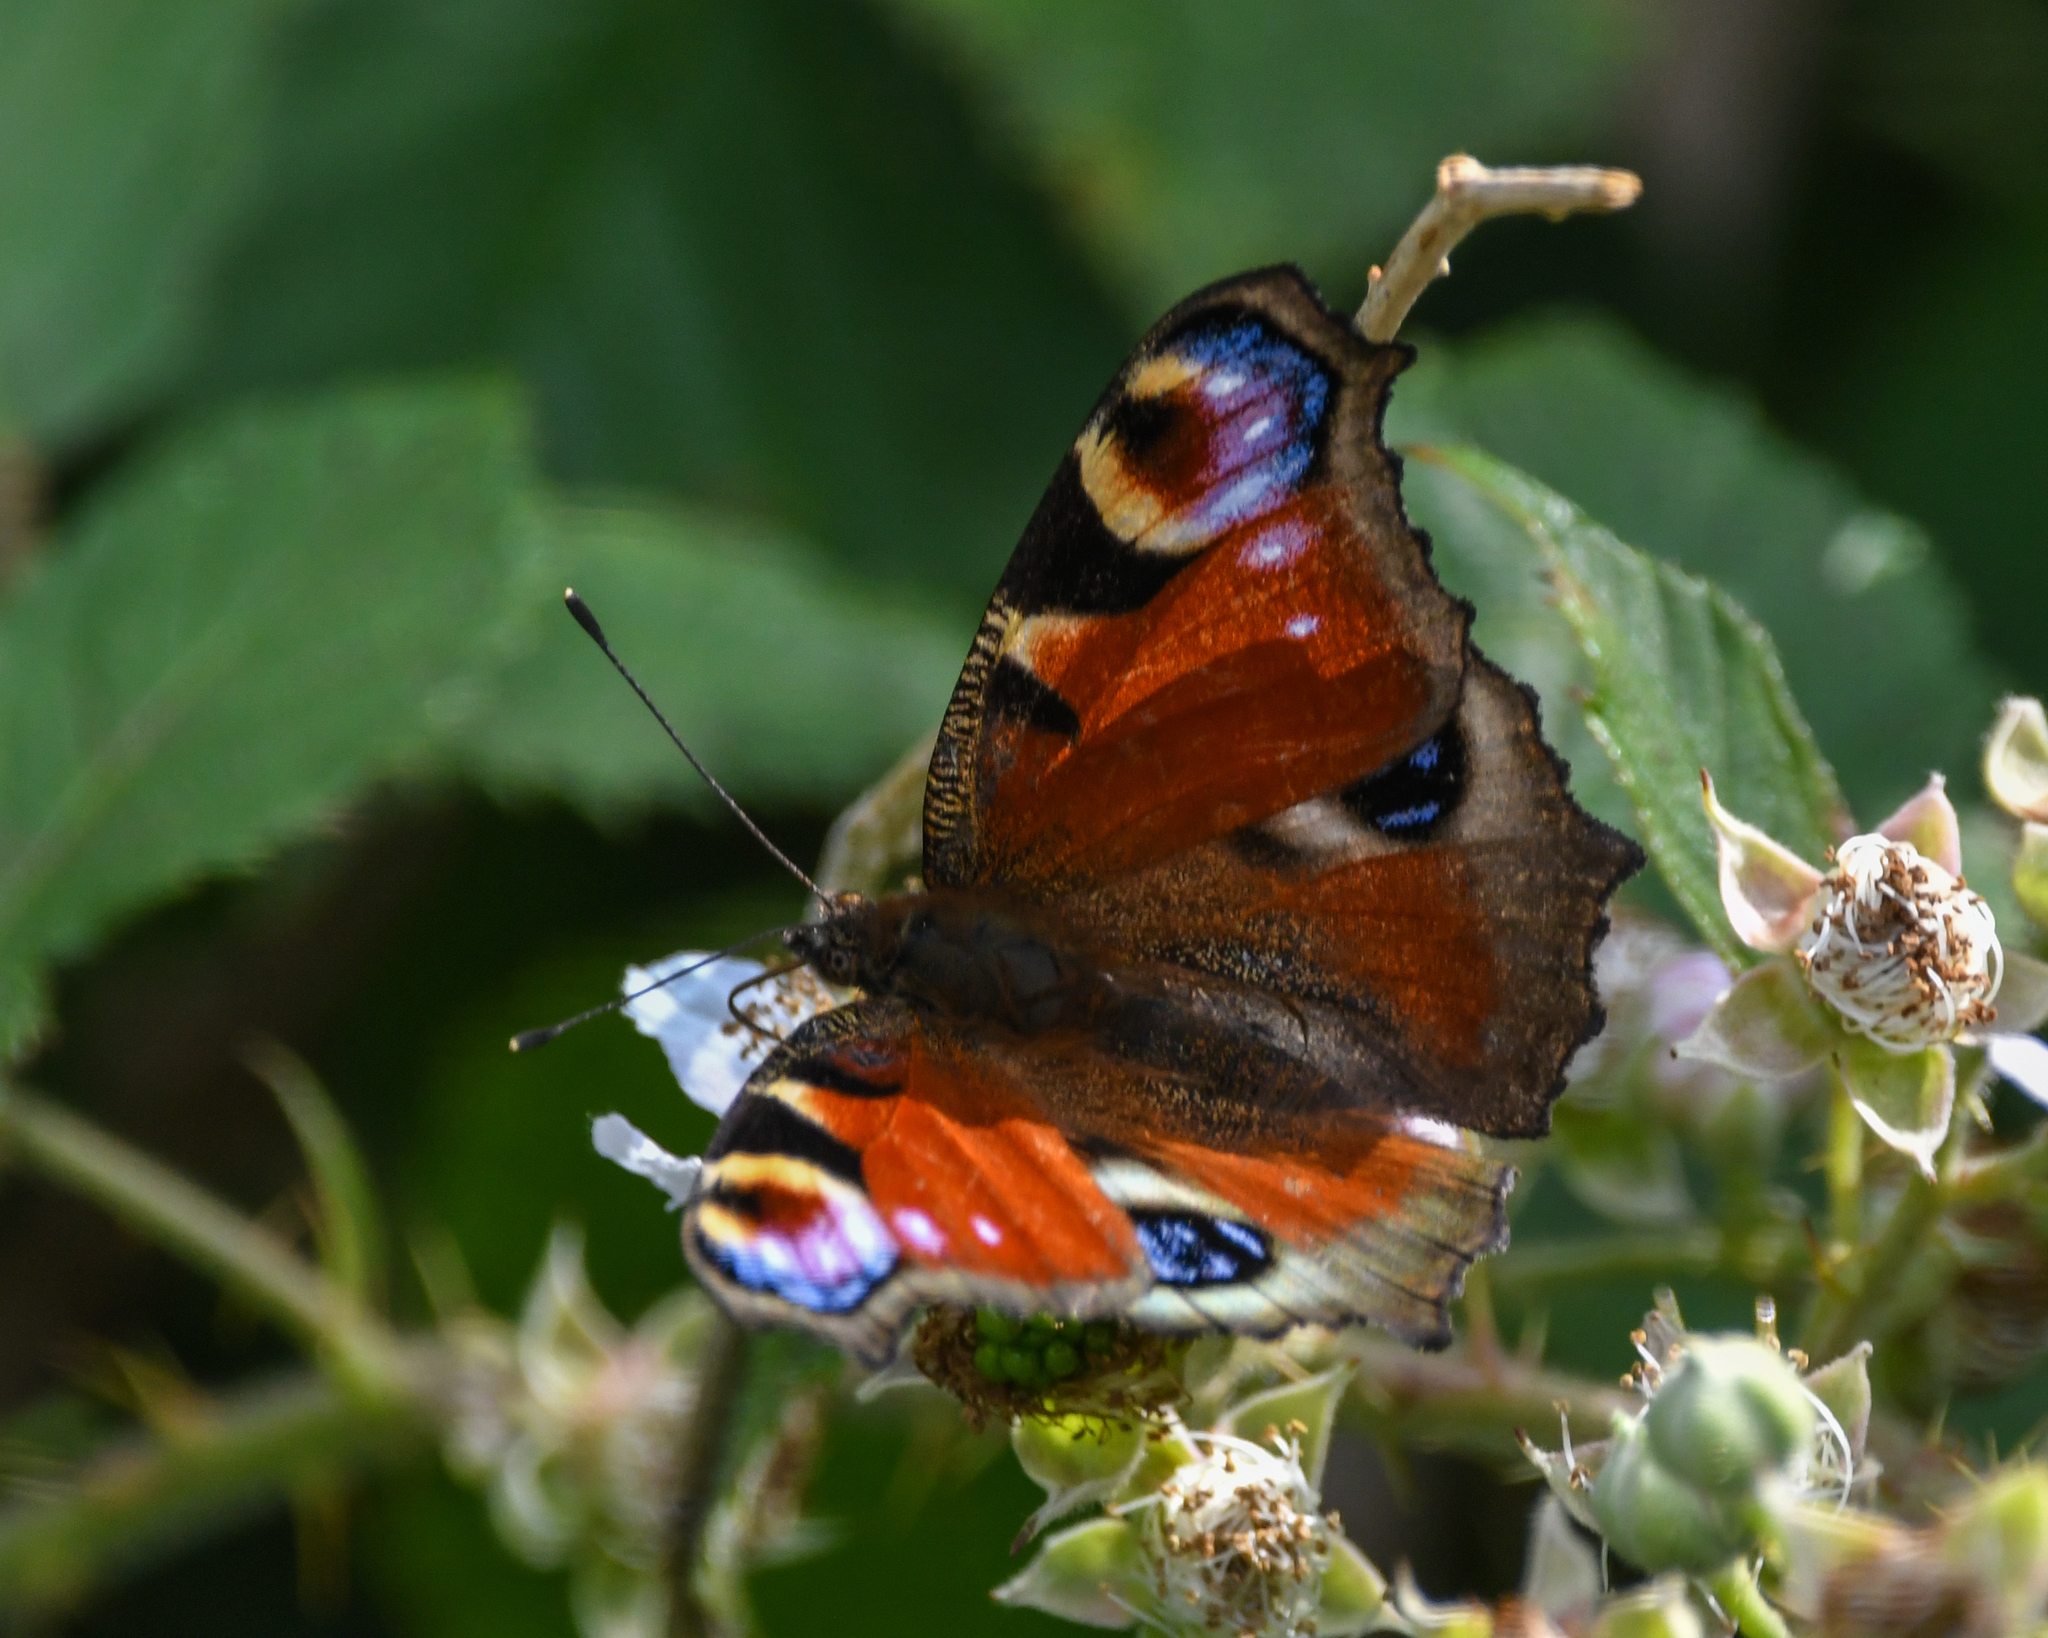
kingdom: Animalia
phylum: Arthropoda
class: Insecta
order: Lepidoptera
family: Nymphalidae
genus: Aglais
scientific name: Aglais io
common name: Peacock
